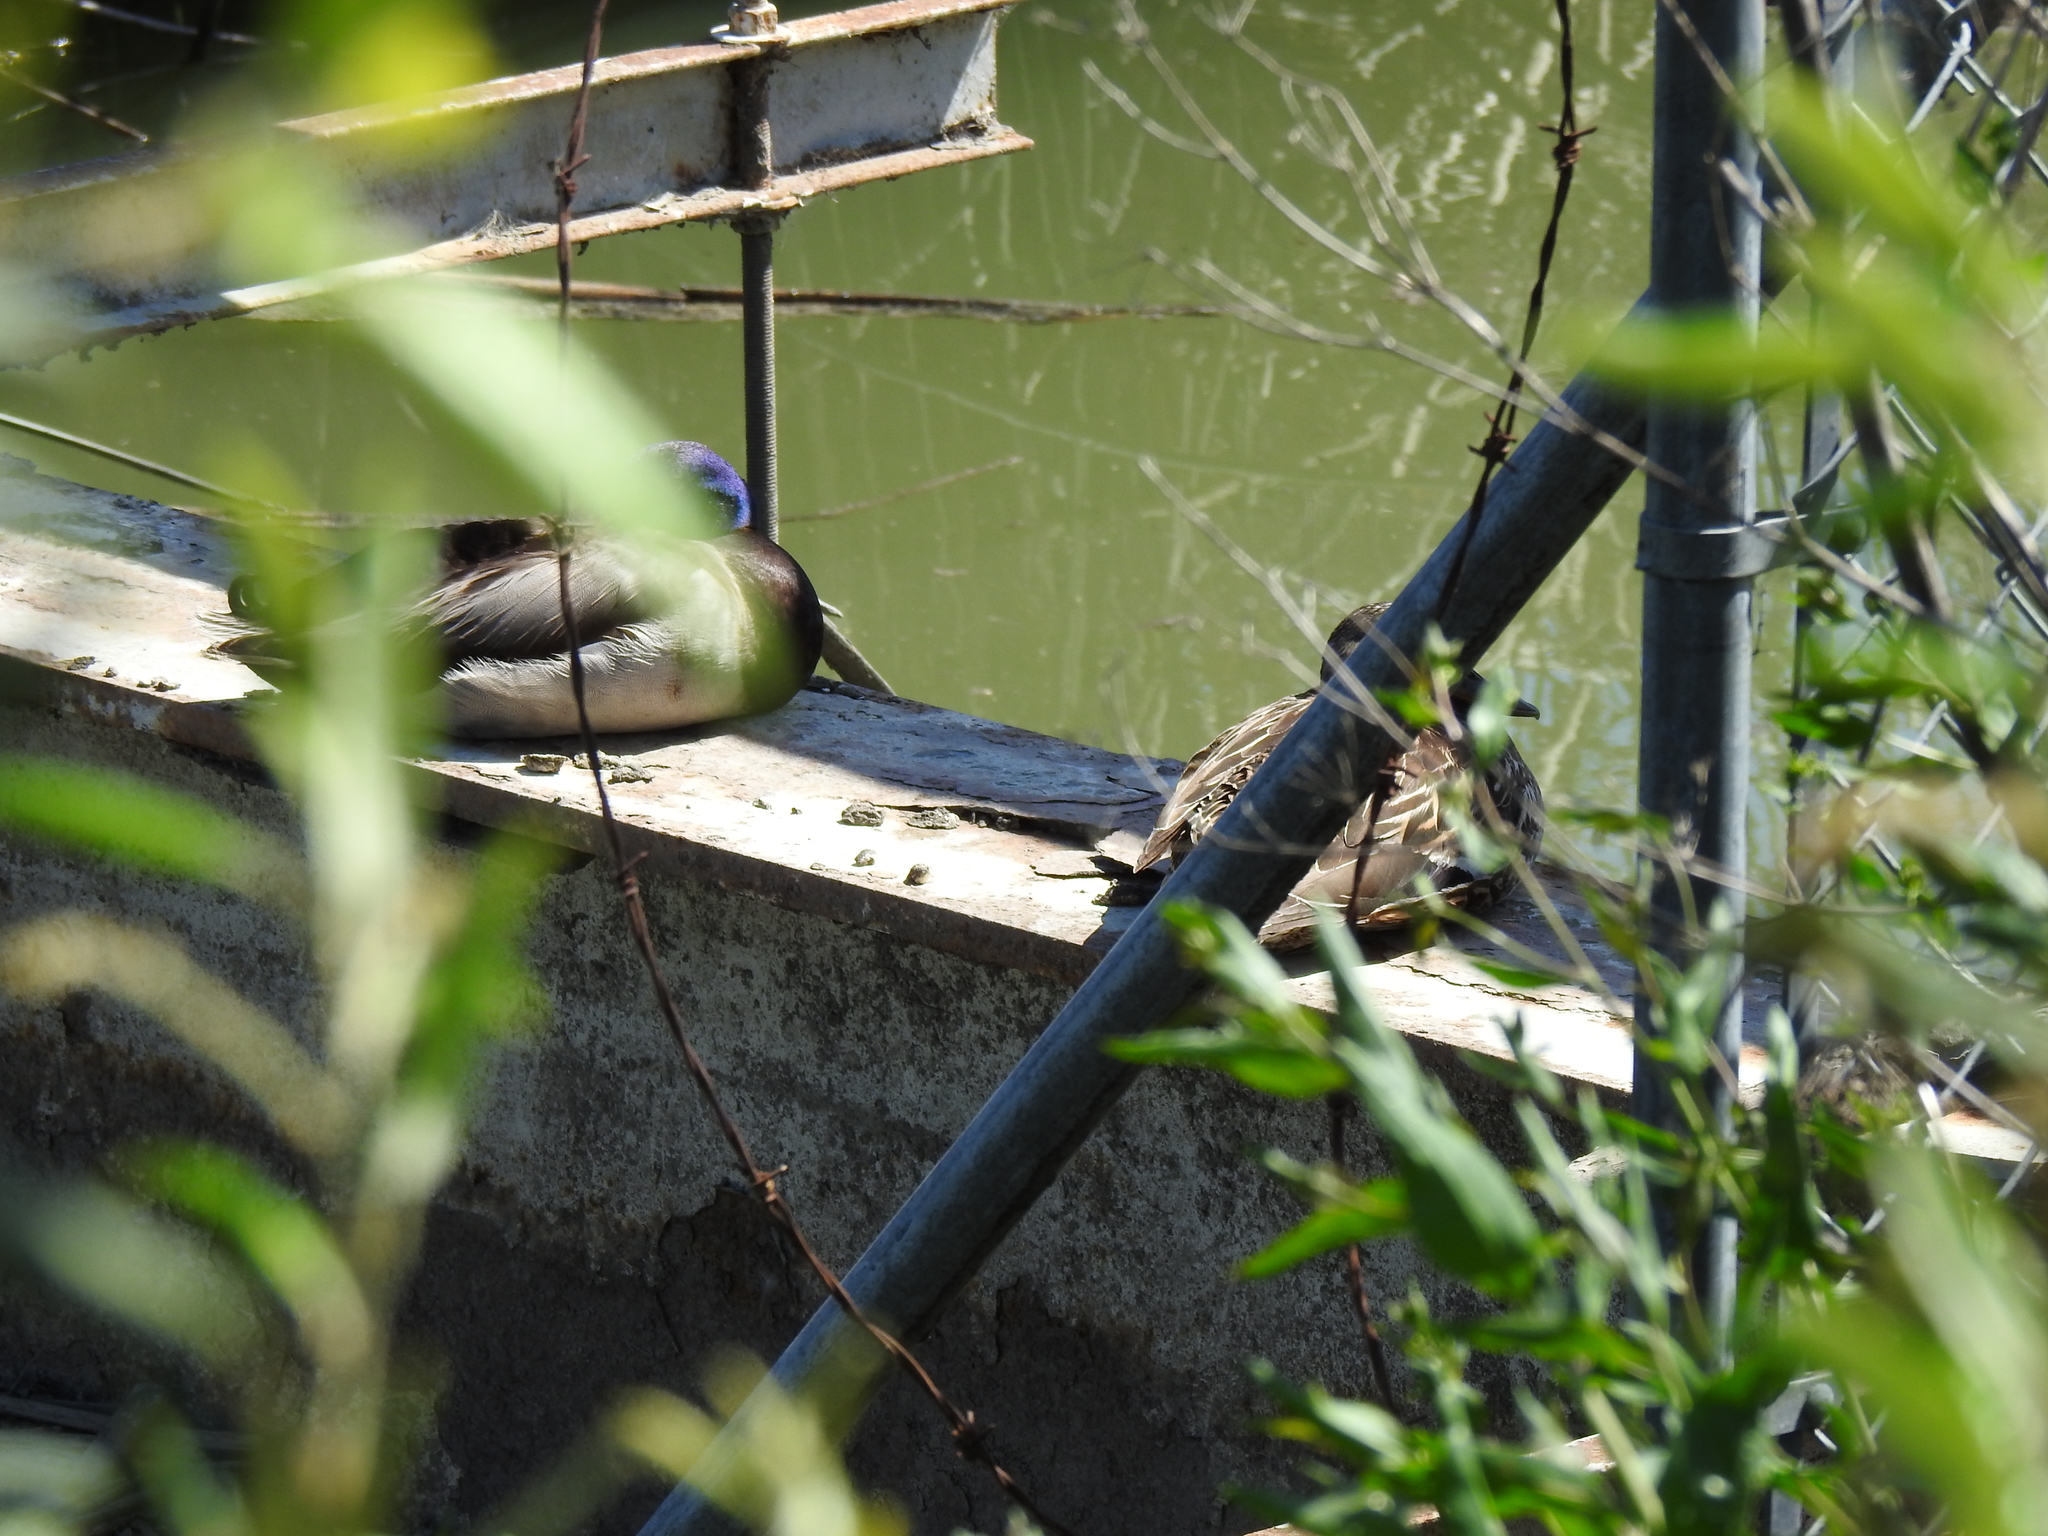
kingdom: Animalia
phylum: Chordata
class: Aves
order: Anseriformes
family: Anatidae
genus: Anas
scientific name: Anas platyrhynchos
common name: Mallard
